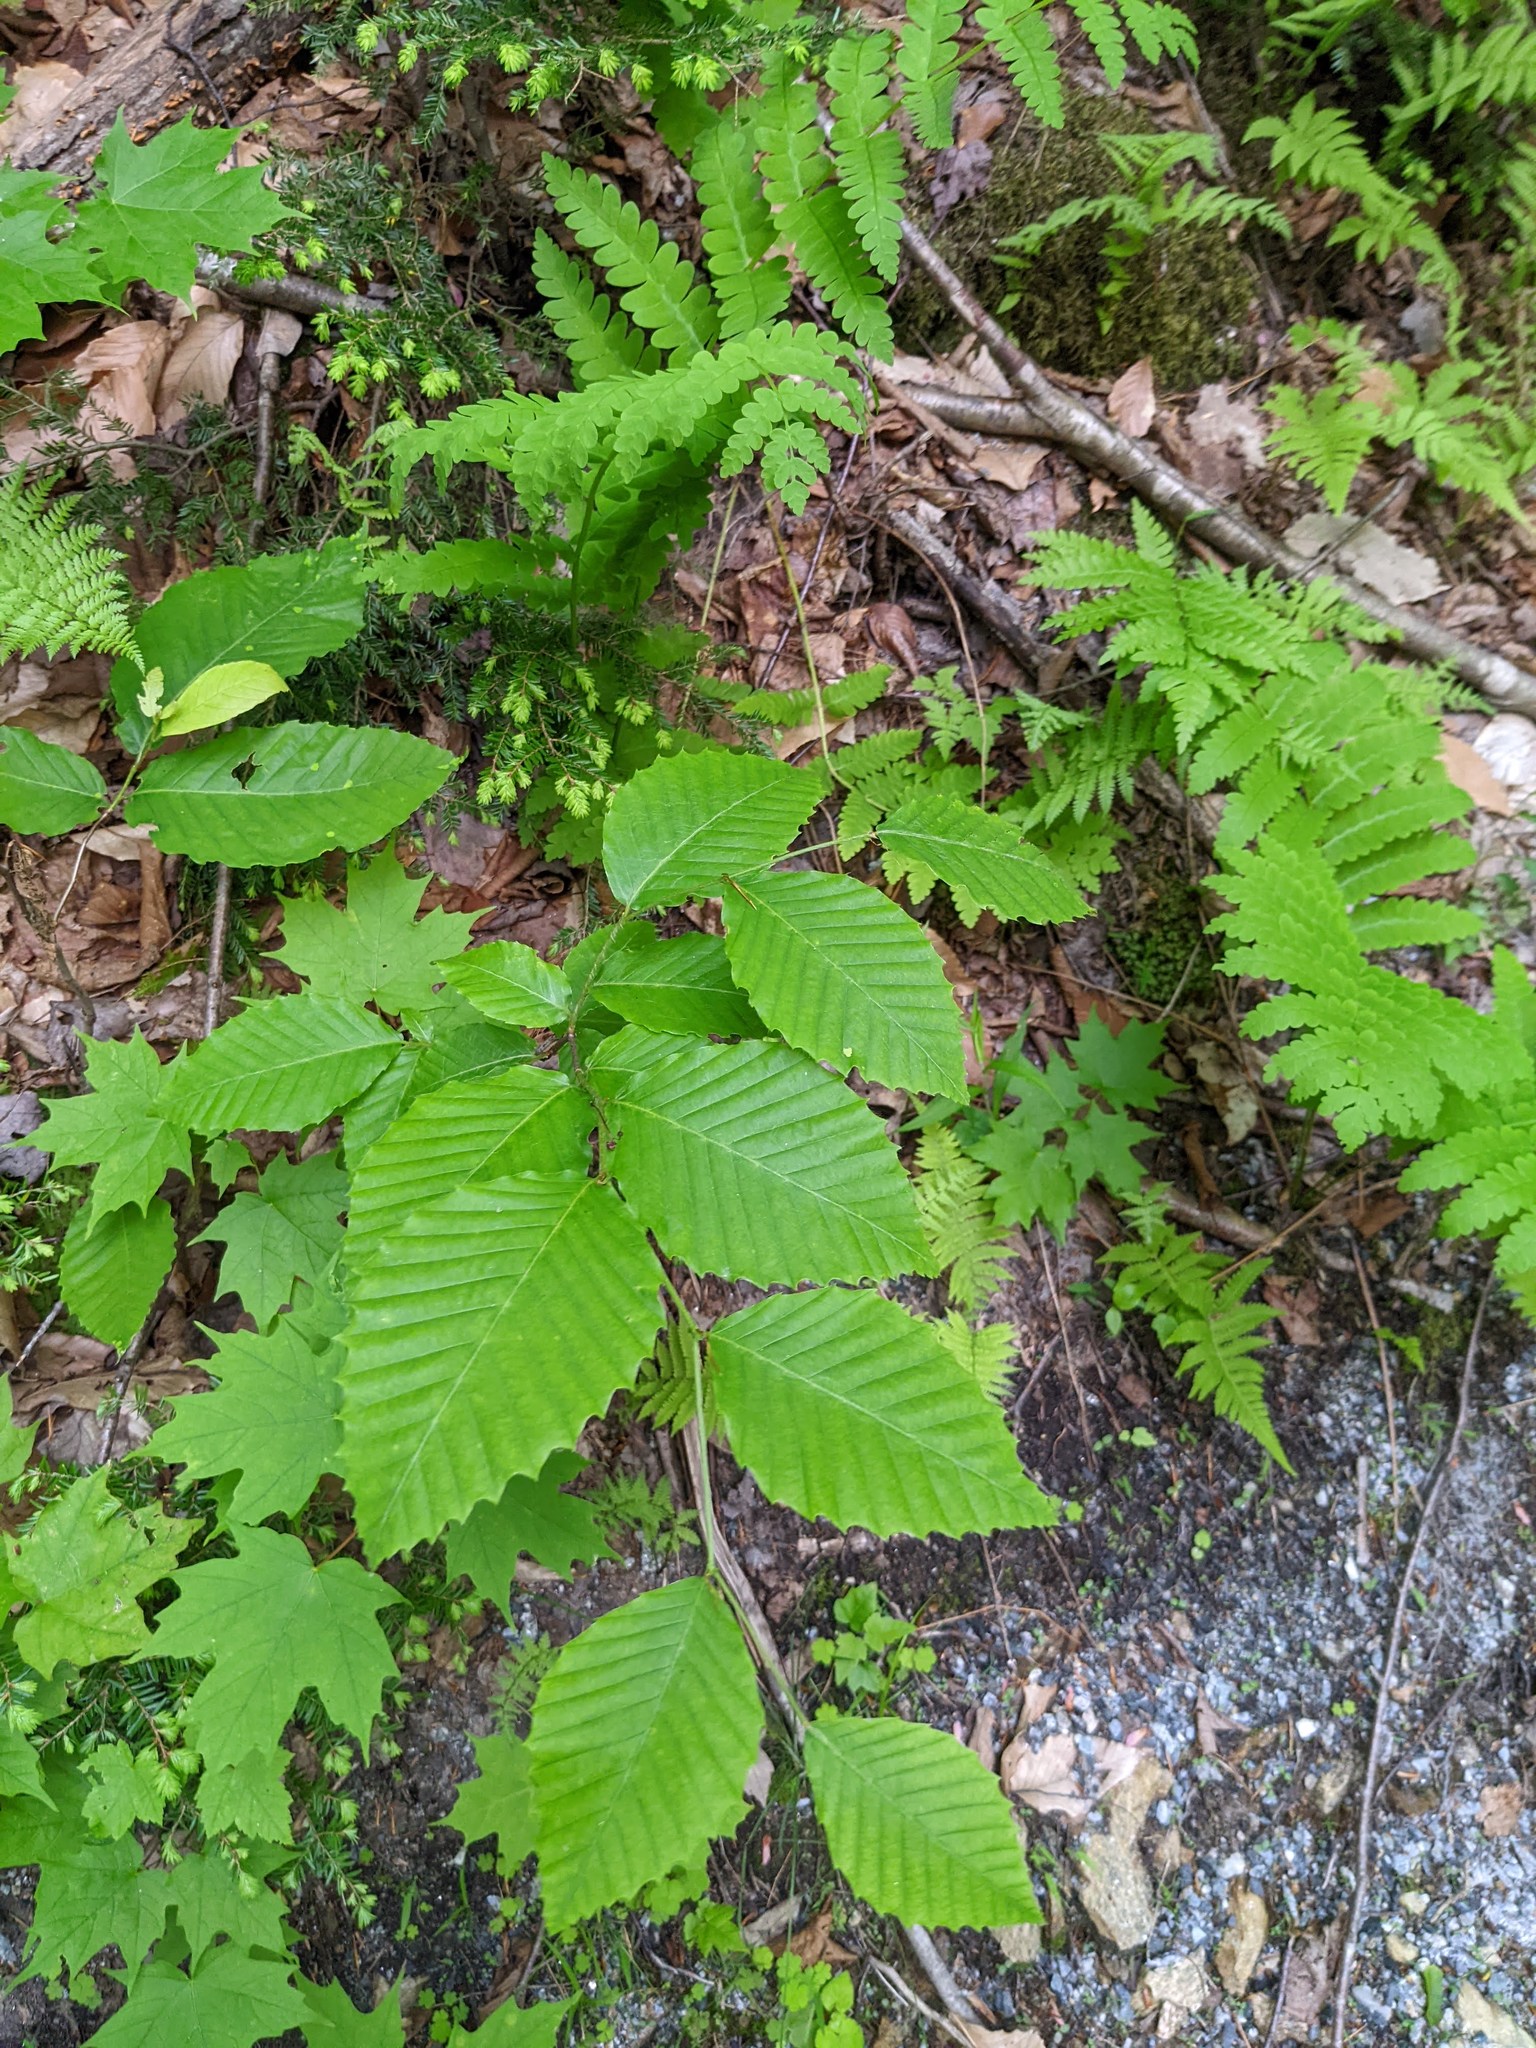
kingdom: Plantae
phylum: Tracheophyta
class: Magnoliopsida
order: Fagales
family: Fagaceae
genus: Fagus
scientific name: Fagus grandifolia
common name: American beech
